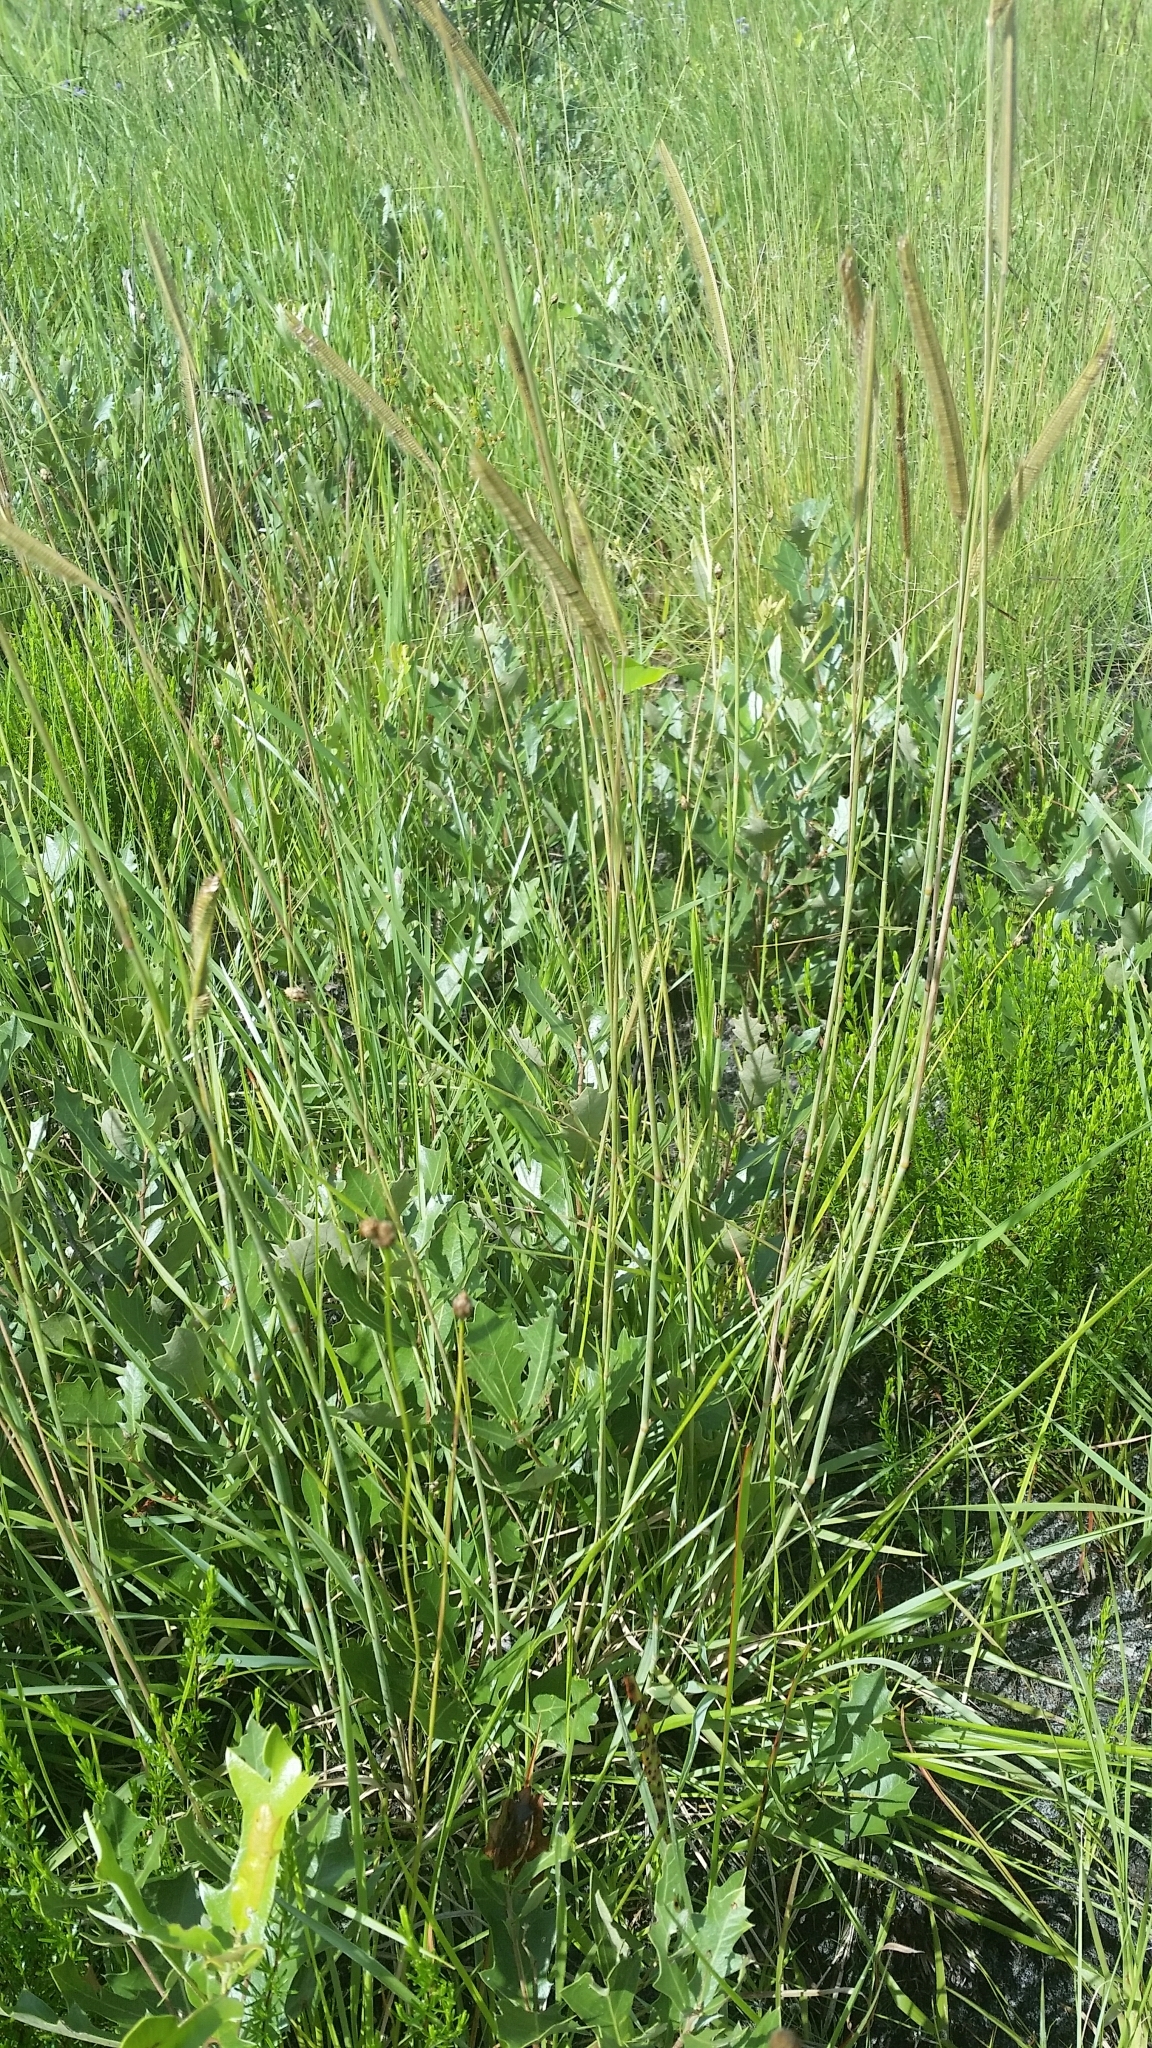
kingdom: Plantae
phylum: Tracheophyta
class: Liliopsida
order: Poales
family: Poaceae
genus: Ctenium
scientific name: Ctenium aromaticum
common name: Toothache grass
